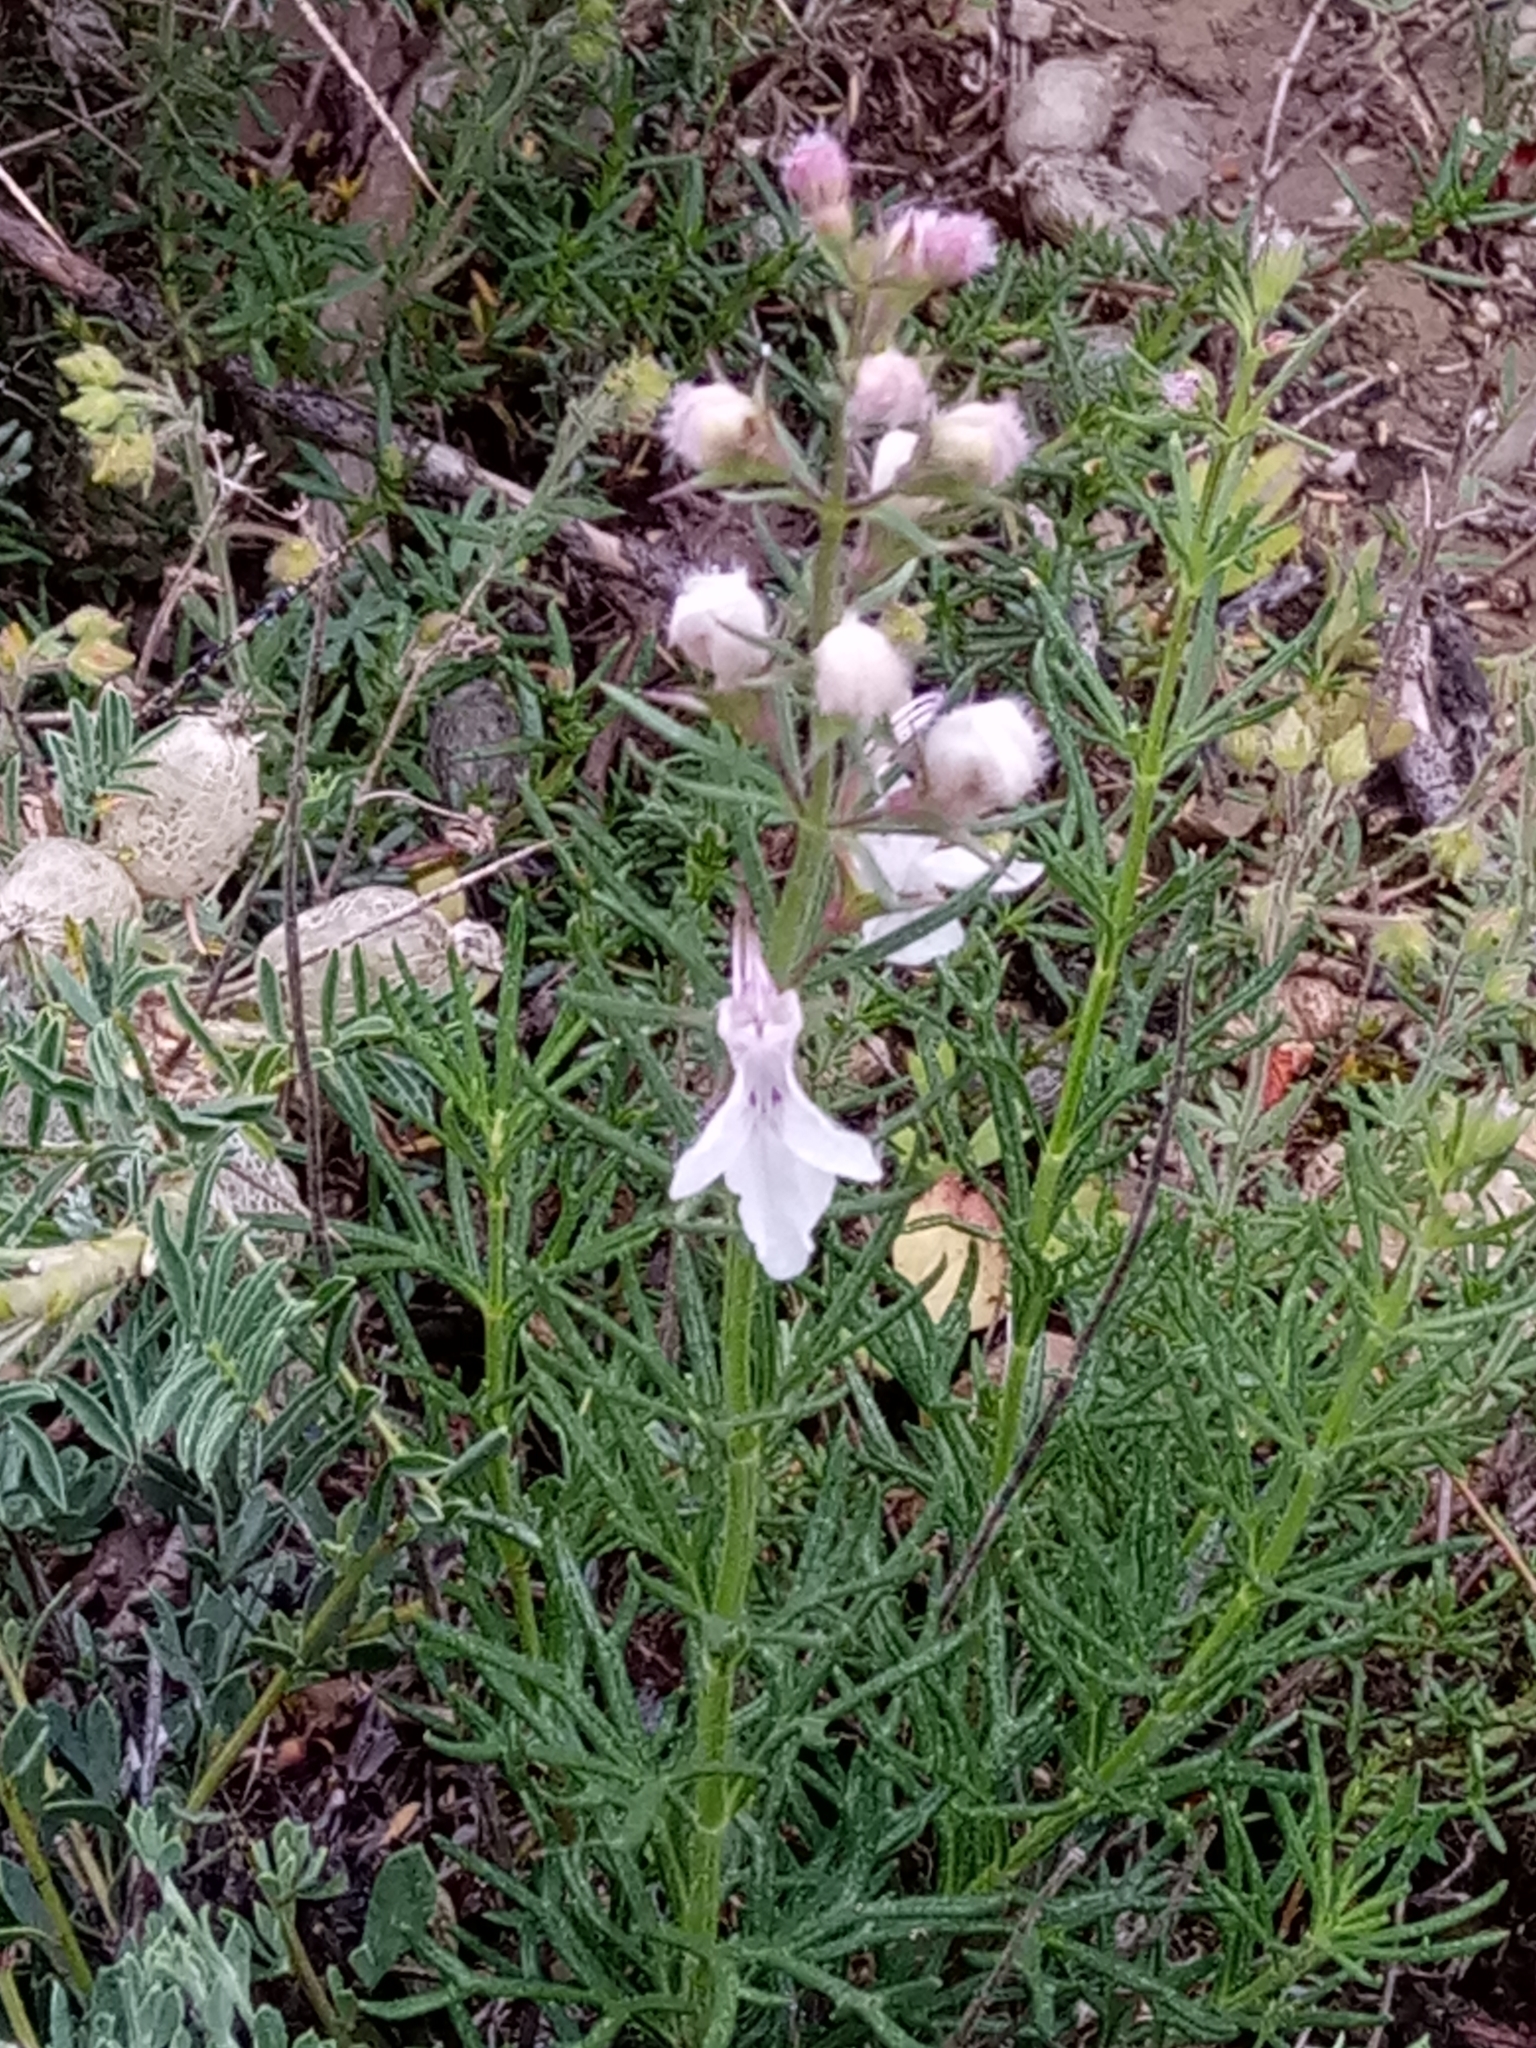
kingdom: Plantae
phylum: Tracheophyta
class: Magnoliopsida
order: Lamiales
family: Lamiaceae
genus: Teucrium
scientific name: Teucrium pseudochamaepitys
